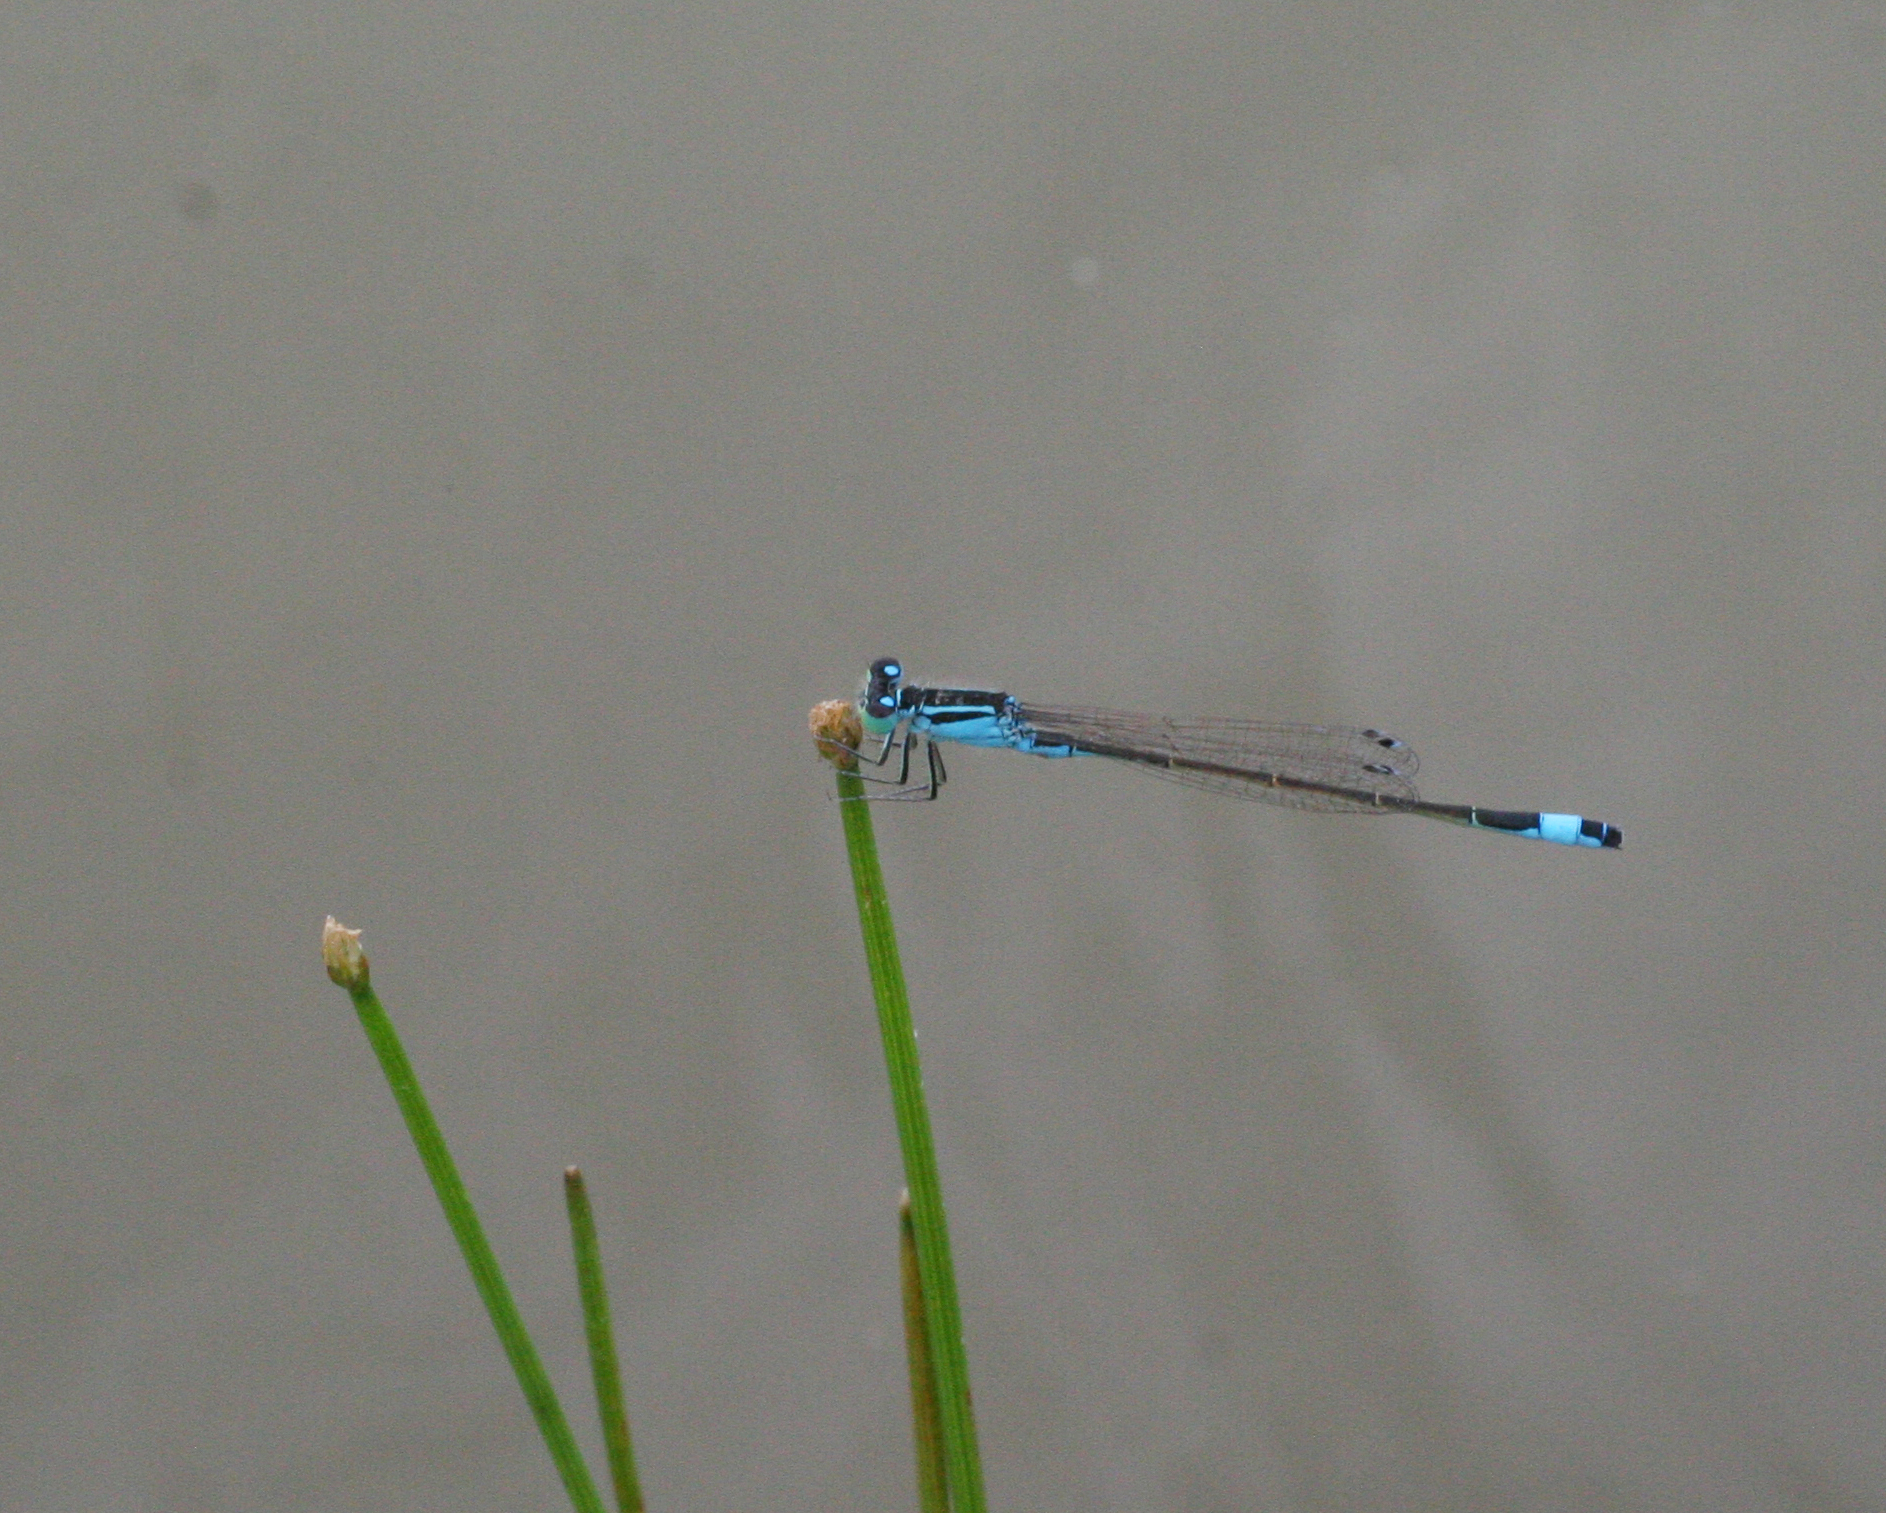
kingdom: Animalia
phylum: Arthropoda
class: Insecta
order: Odonata
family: Coenagrionidae
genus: Ischnura
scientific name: Ischnura elegans
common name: Blue-tailed damselfly
